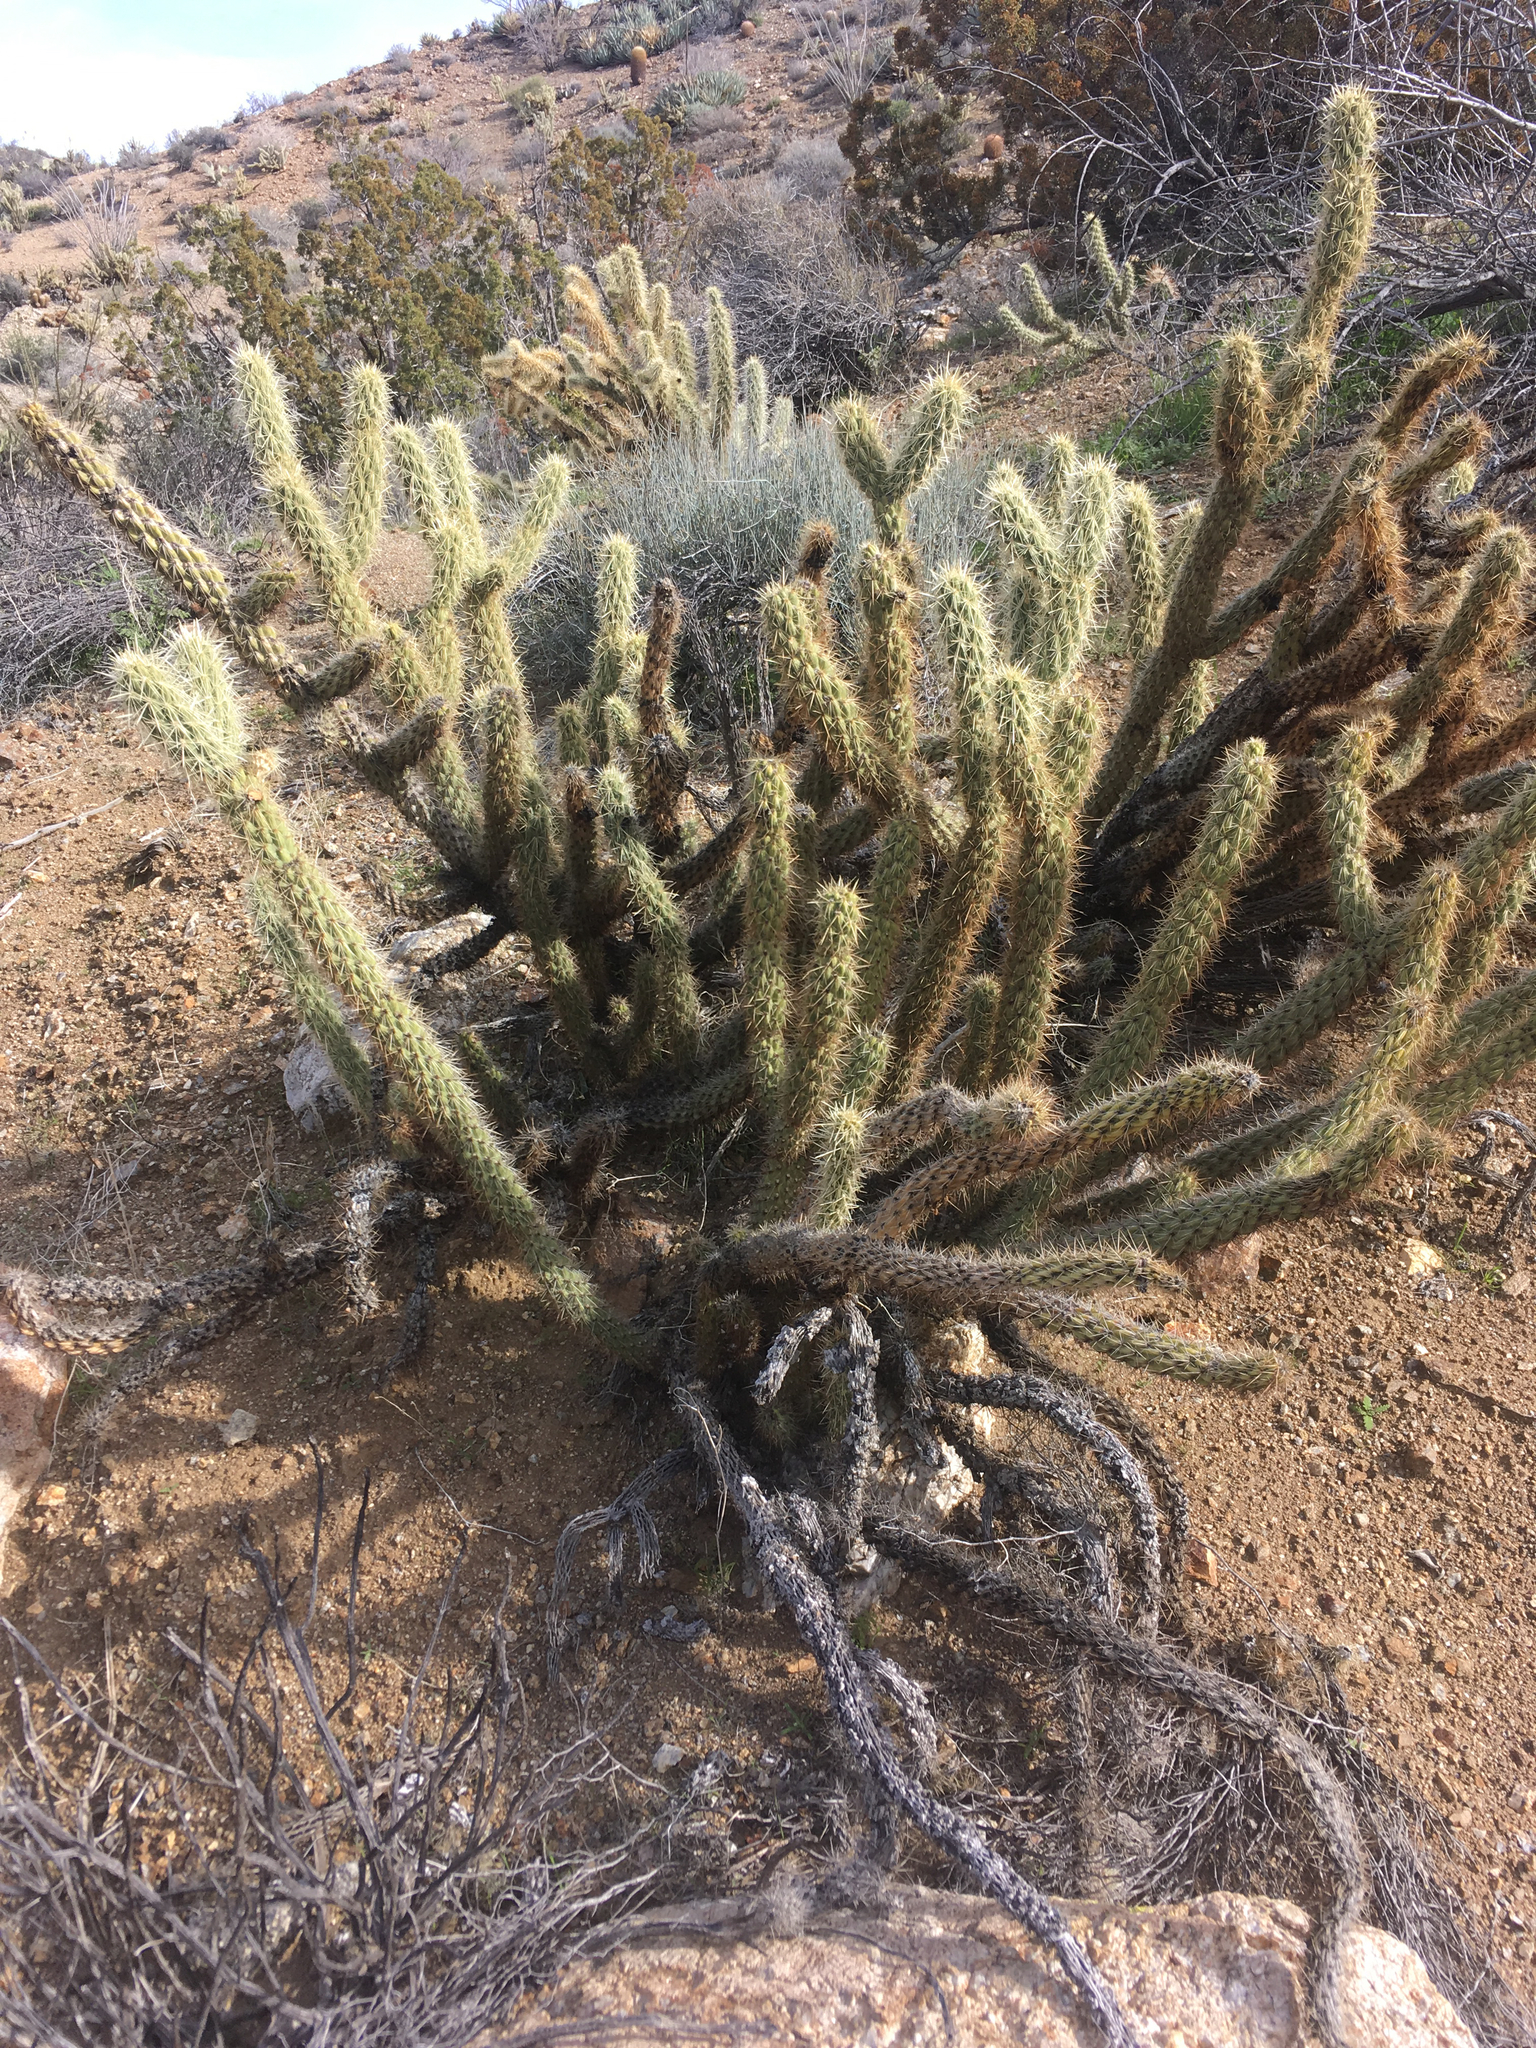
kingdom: Plantae
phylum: Tracheophyta
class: Magnoliopsida
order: Caryophyllales
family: Cactaceae
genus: Cylindropuntia
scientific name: Cylindropuntia ganderi
